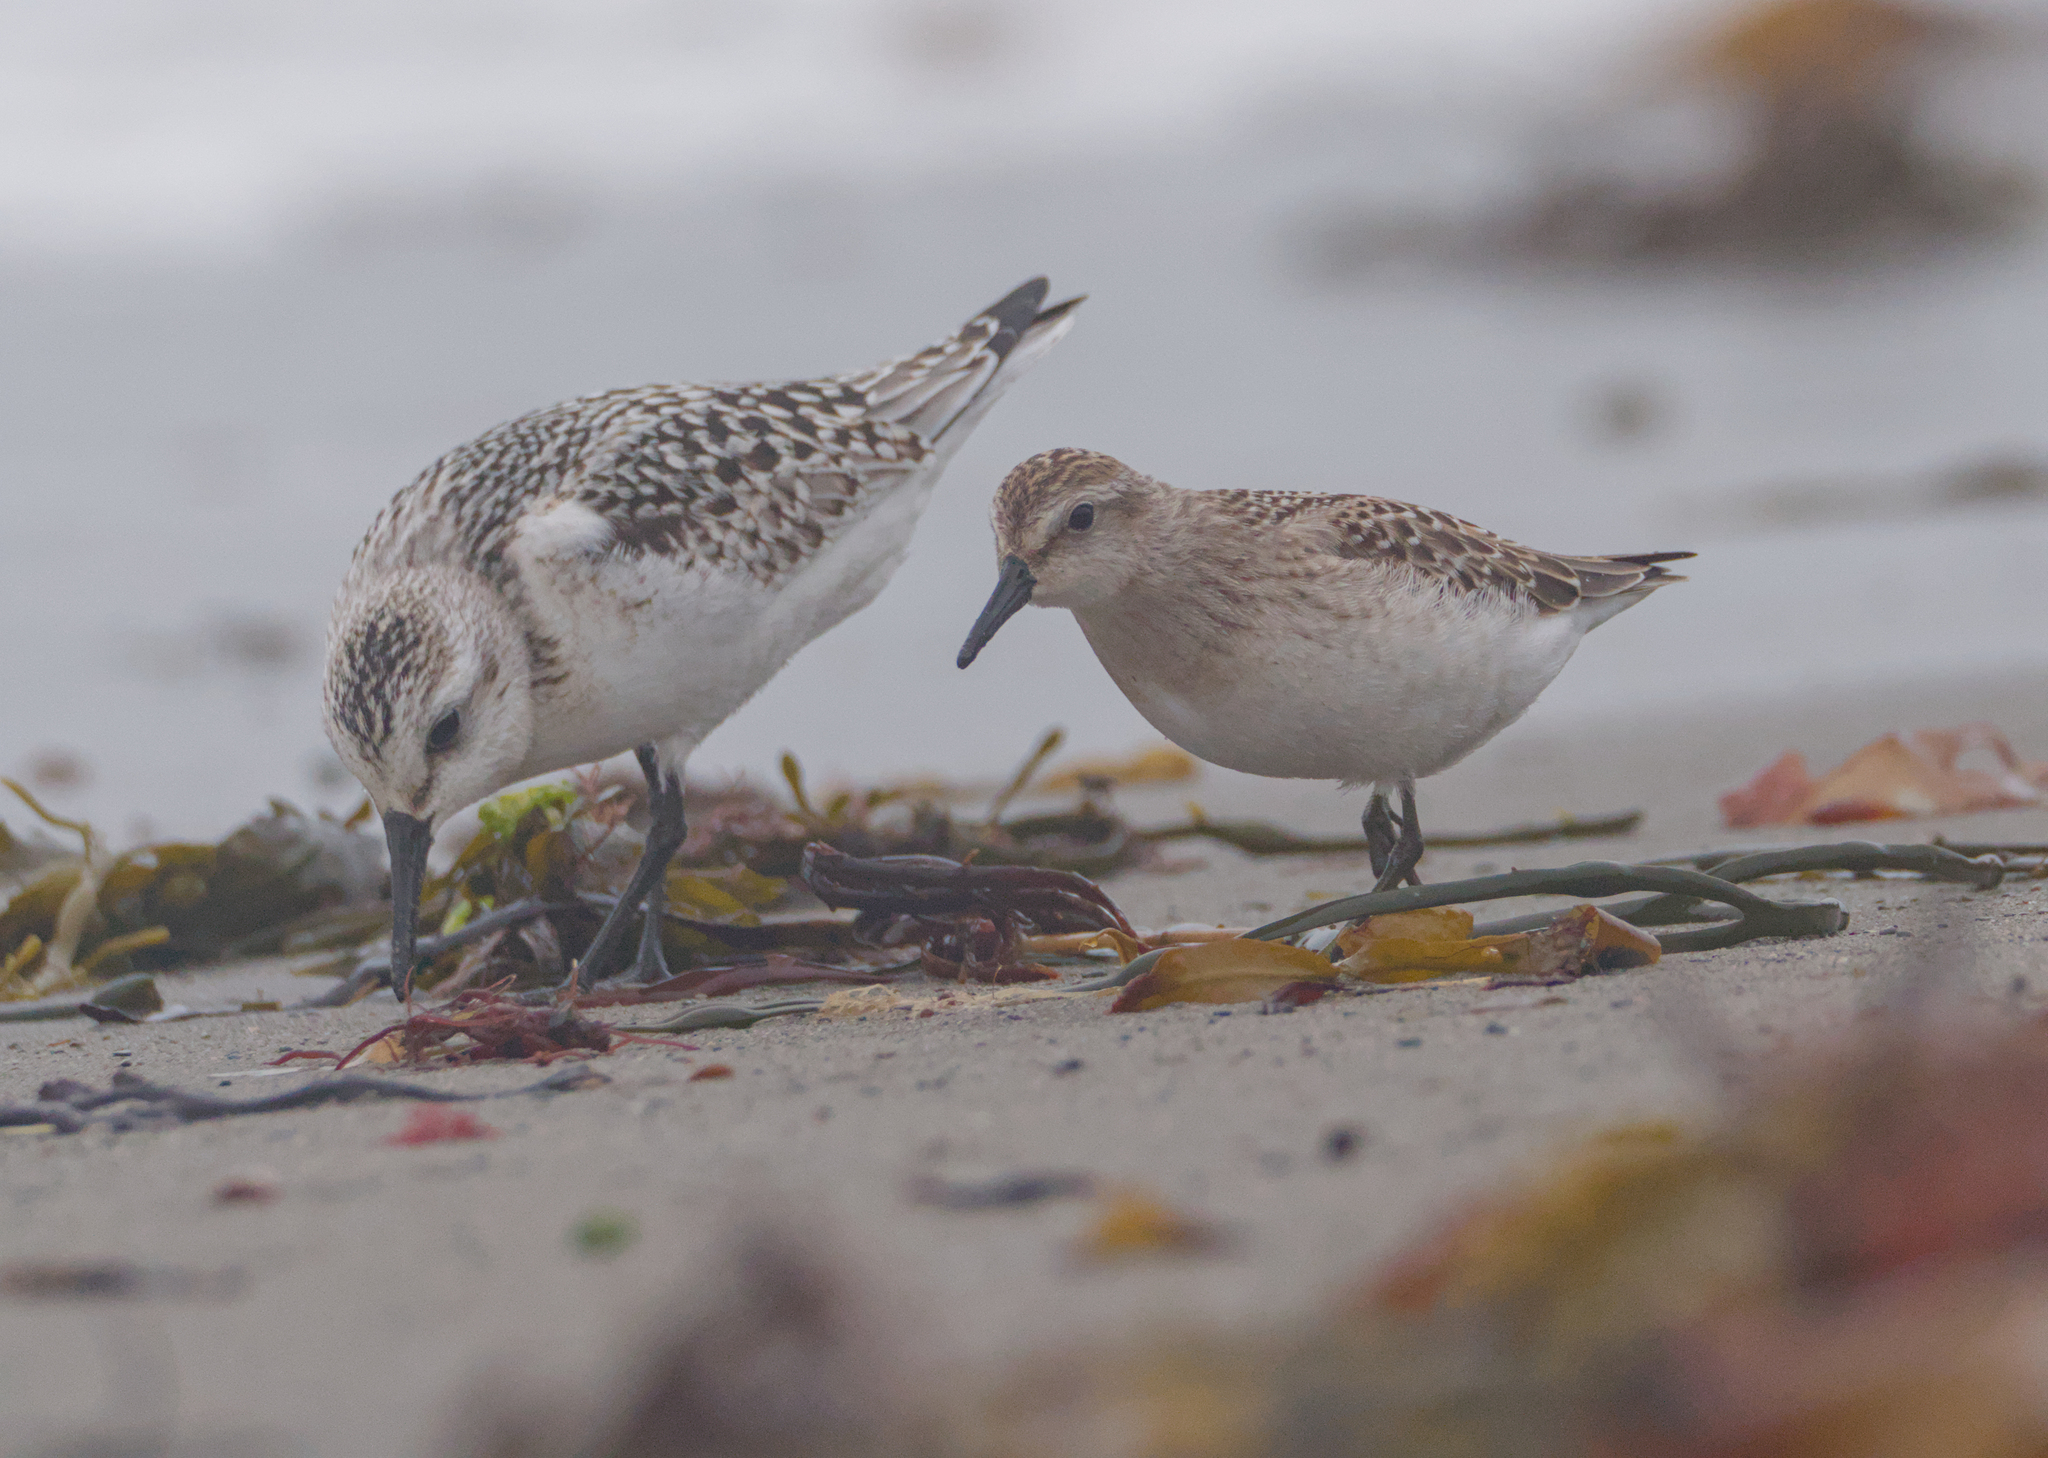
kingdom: Animalia
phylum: Chordata
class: Aves
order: Charadriiformes
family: Scolopacidae
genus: Calidris
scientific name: Calidris pusilla
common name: Semipalmated sandpiper
